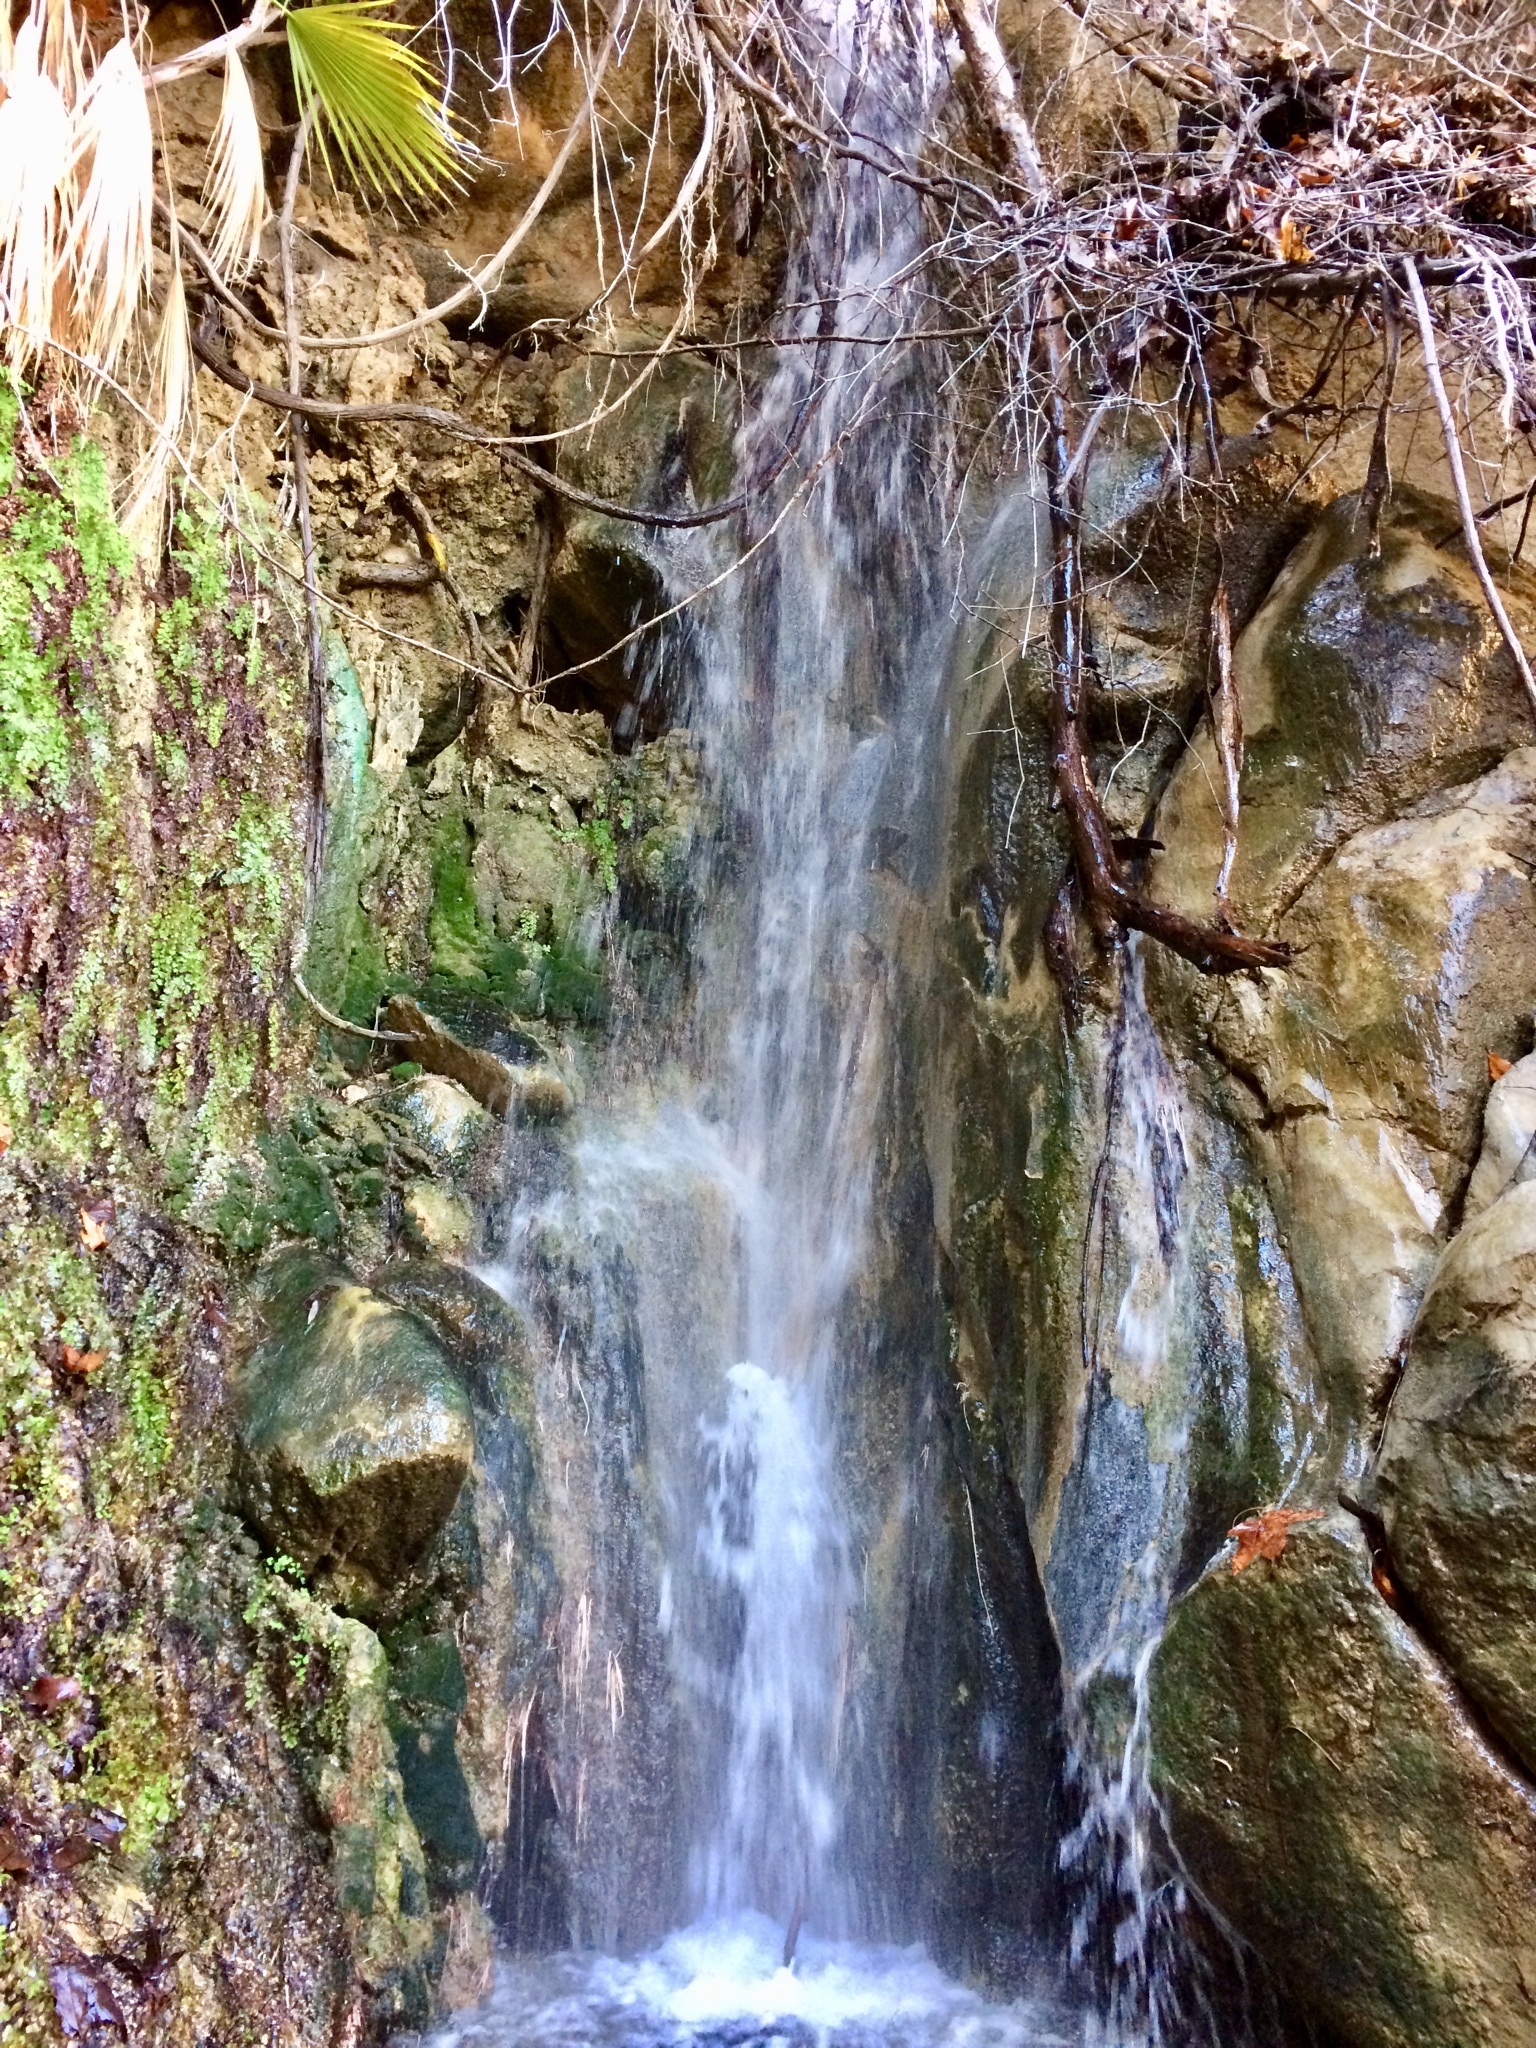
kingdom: Plantae
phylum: Tracheophyta
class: Polypodiopsida
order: Polypodiales
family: Pteridaceae
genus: Adiantum
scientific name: Adiantum capillus-veneris
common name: Maidenhair fern
